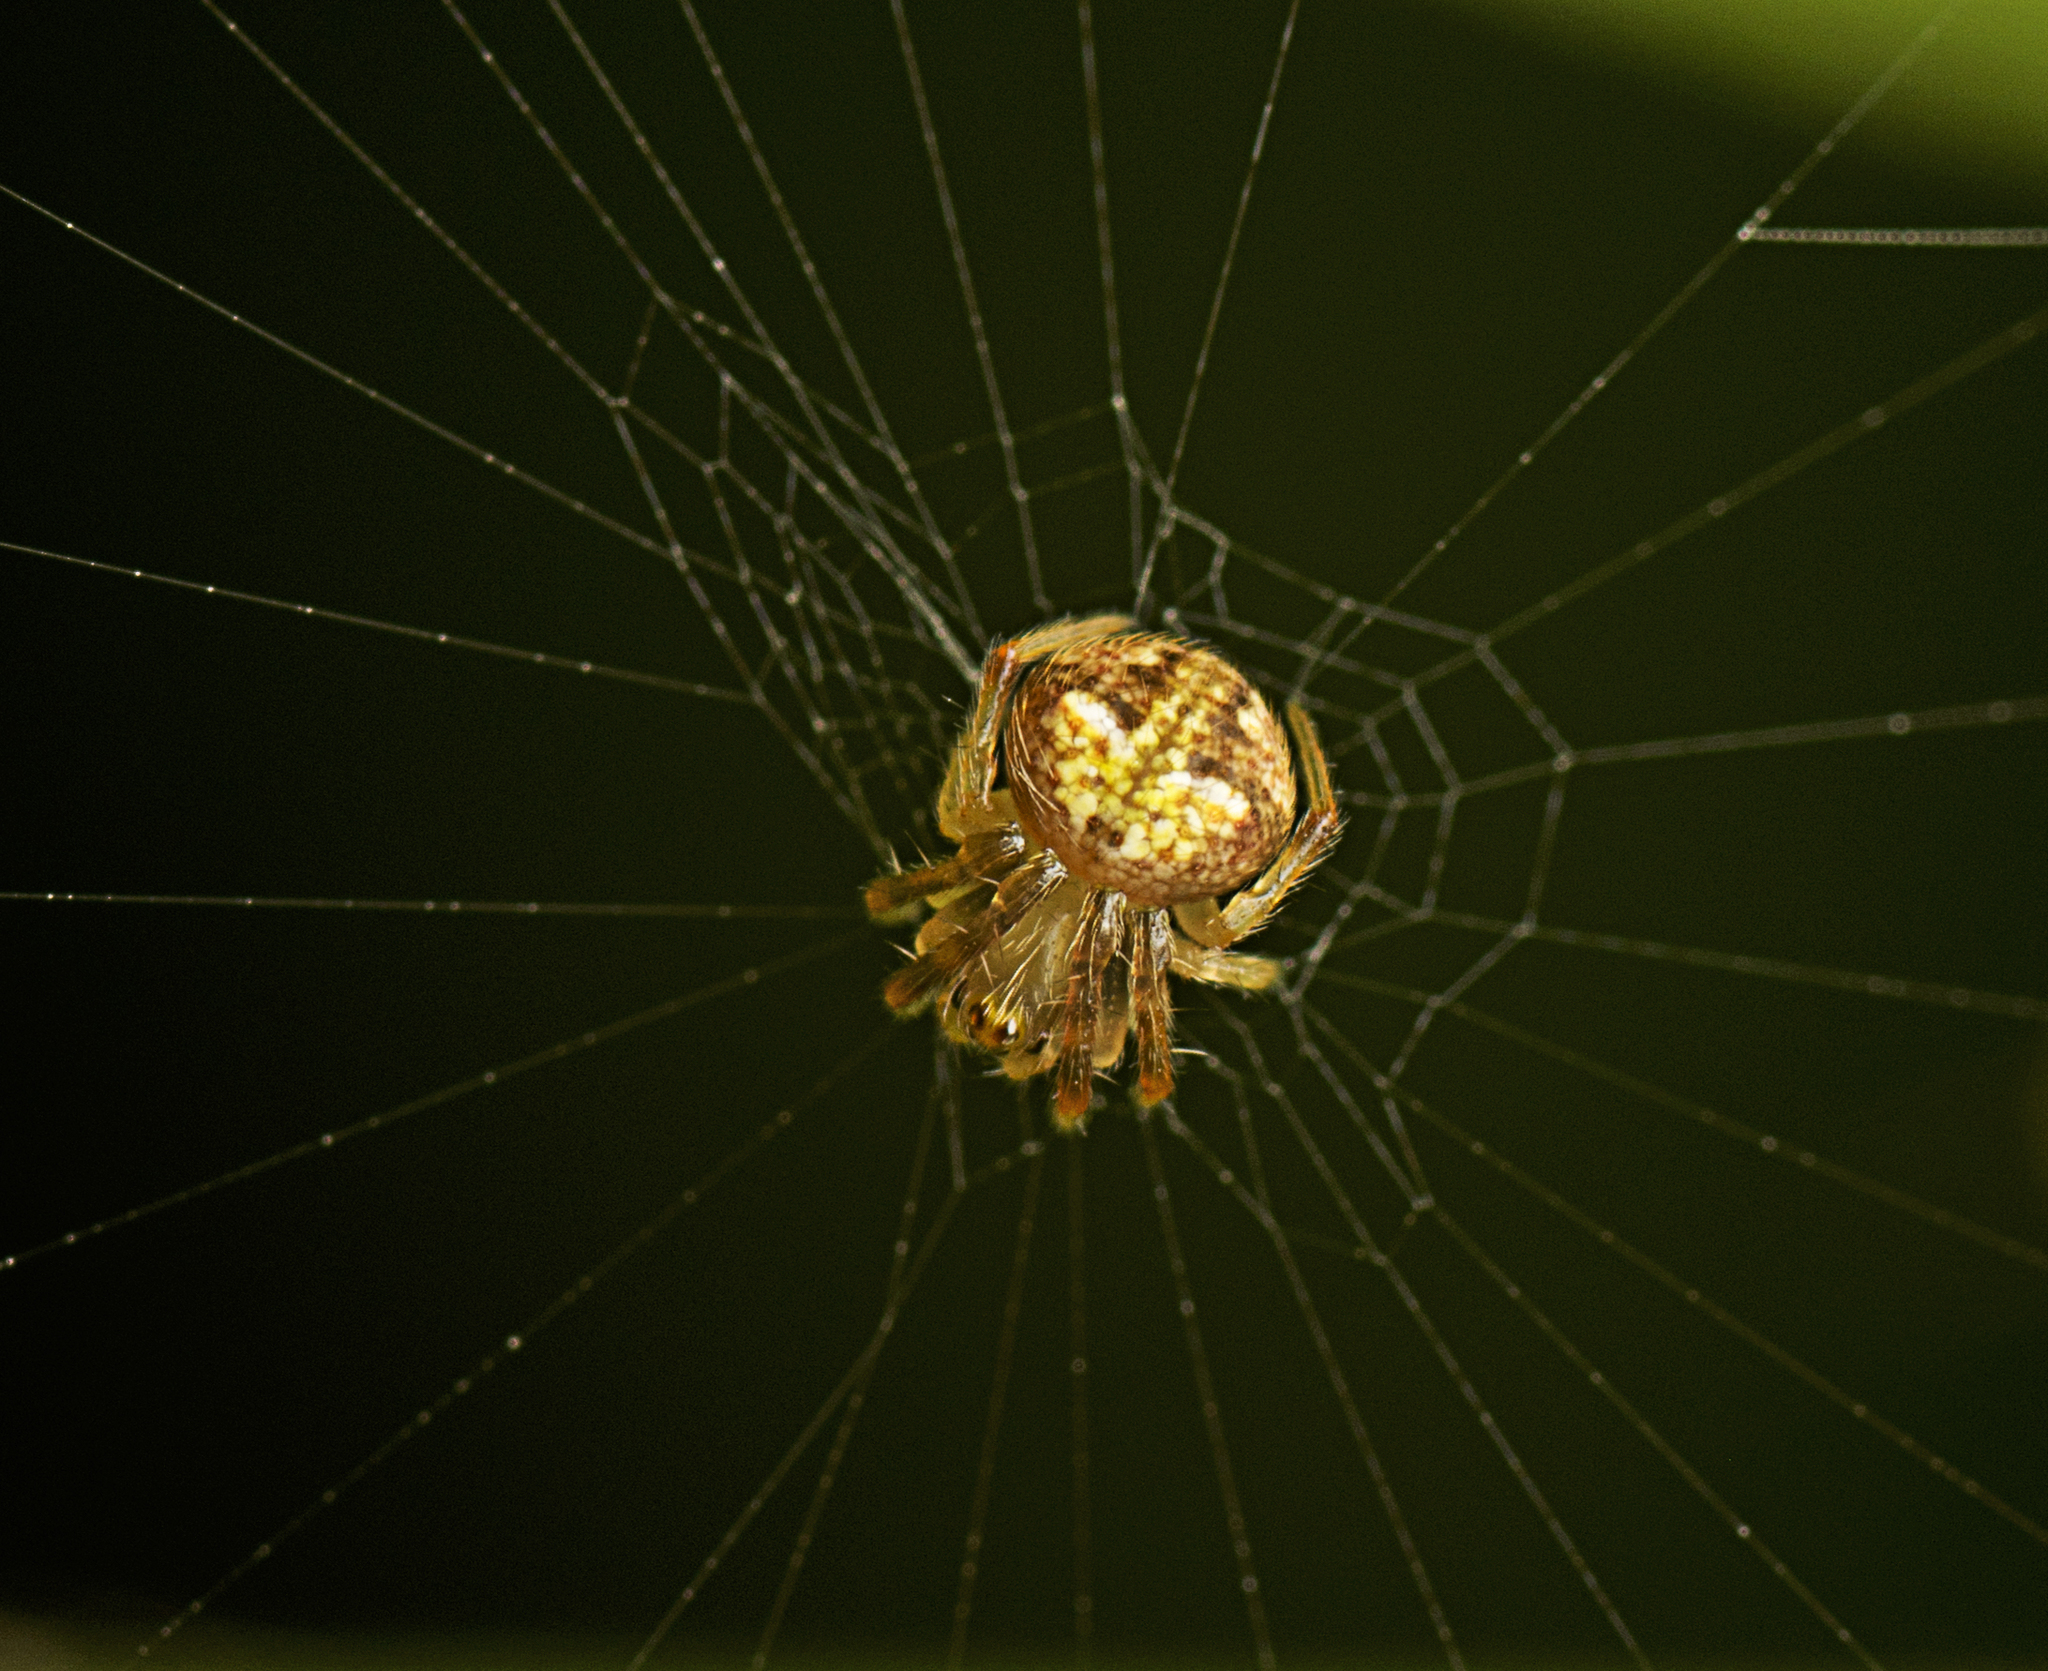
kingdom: Animalia
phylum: Arthropoda
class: Arachnida
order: Araneae
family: Araneidae
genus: Araneus
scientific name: Araneus albotriangulus
